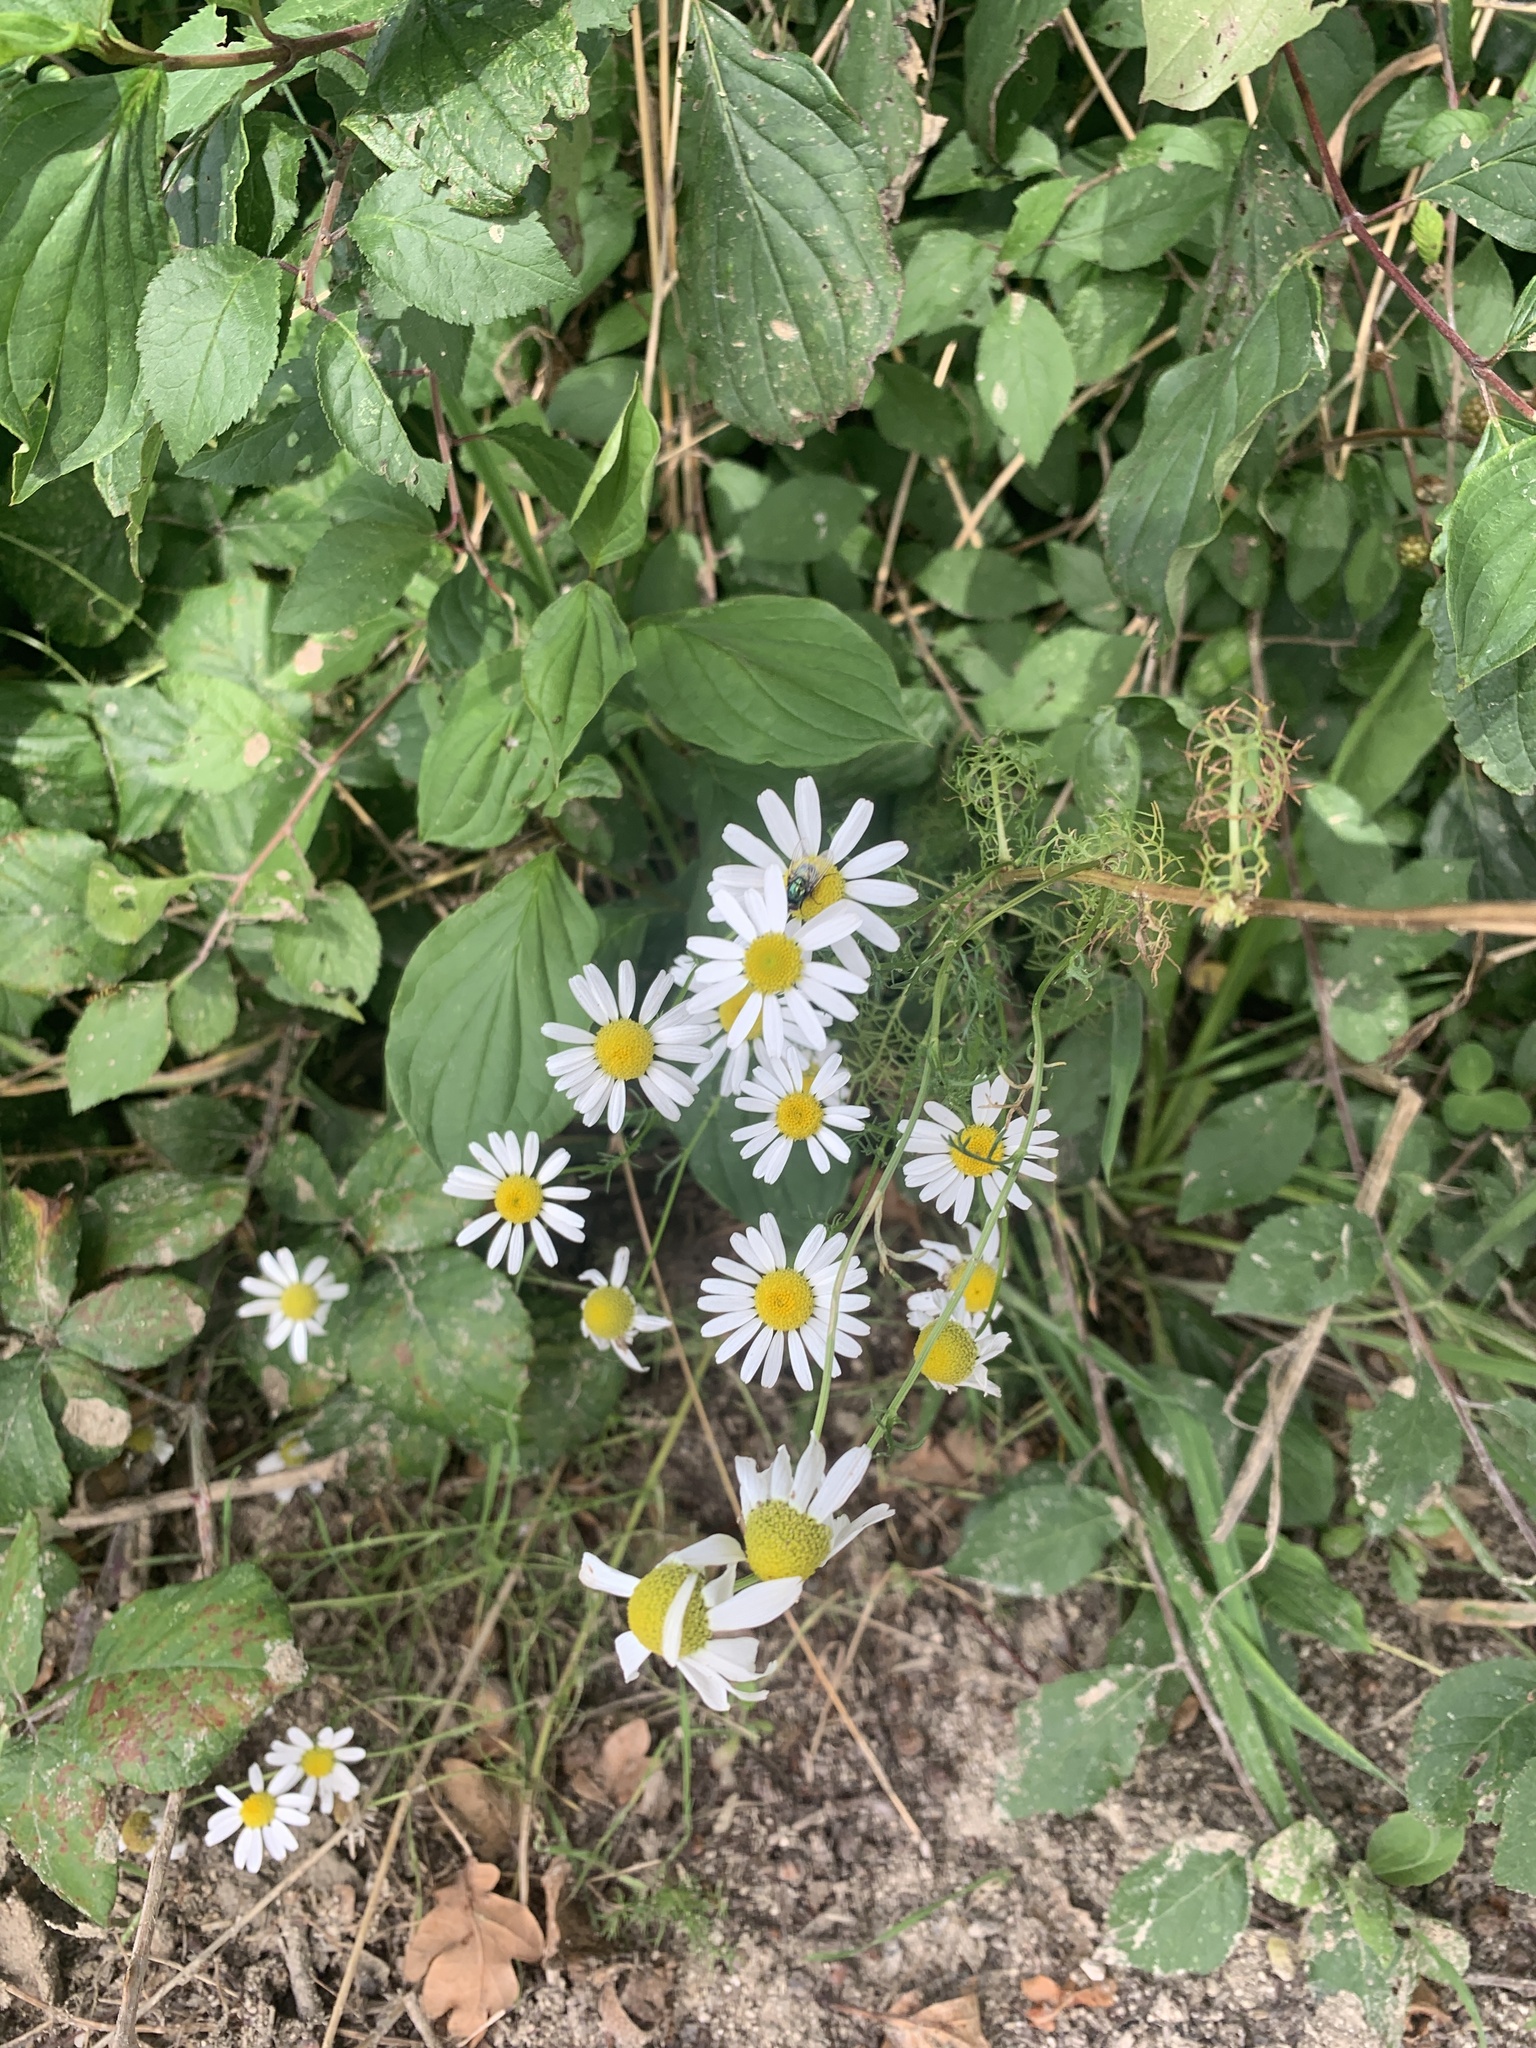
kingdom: Plantae
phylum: Tracheophyta
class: Magnoliopsida
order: Asterales
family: Asteraceae
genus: Tripleurospermum
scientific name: Tripleurospermum inodorum
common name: Scentless mayweed
